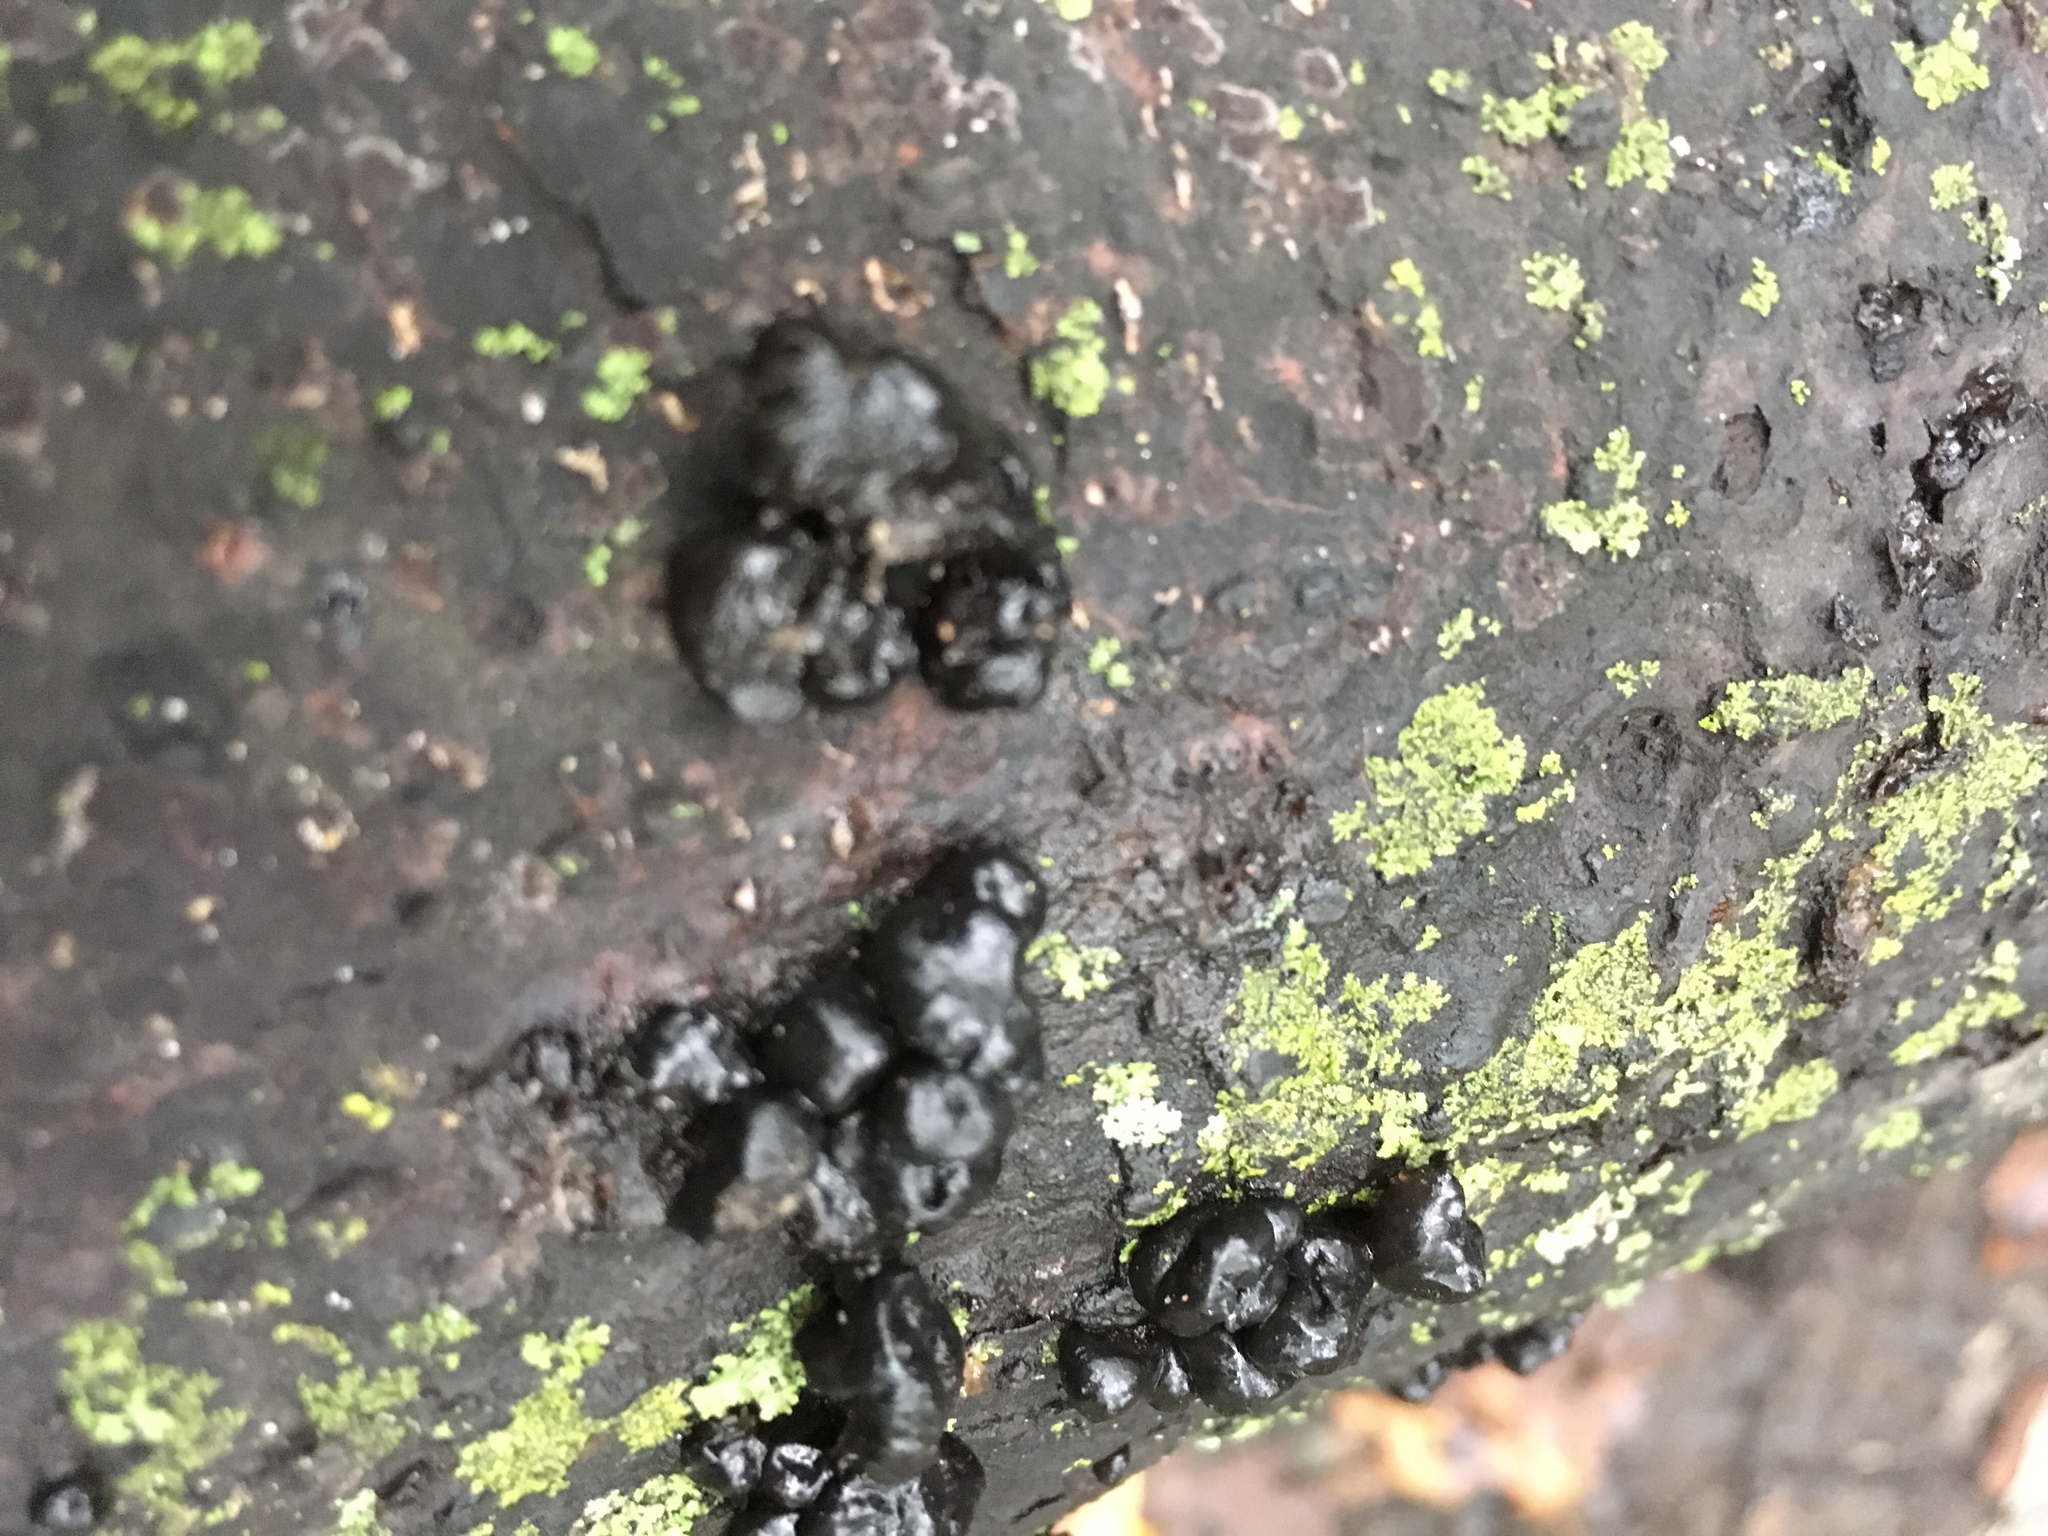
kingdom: Fungi
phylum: Basidiomycota
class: Agaricomycetes
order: Auriculariales
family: Auriculariaceae
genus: Exidia
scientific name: Exidia glandulosa
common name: Witches' butter
